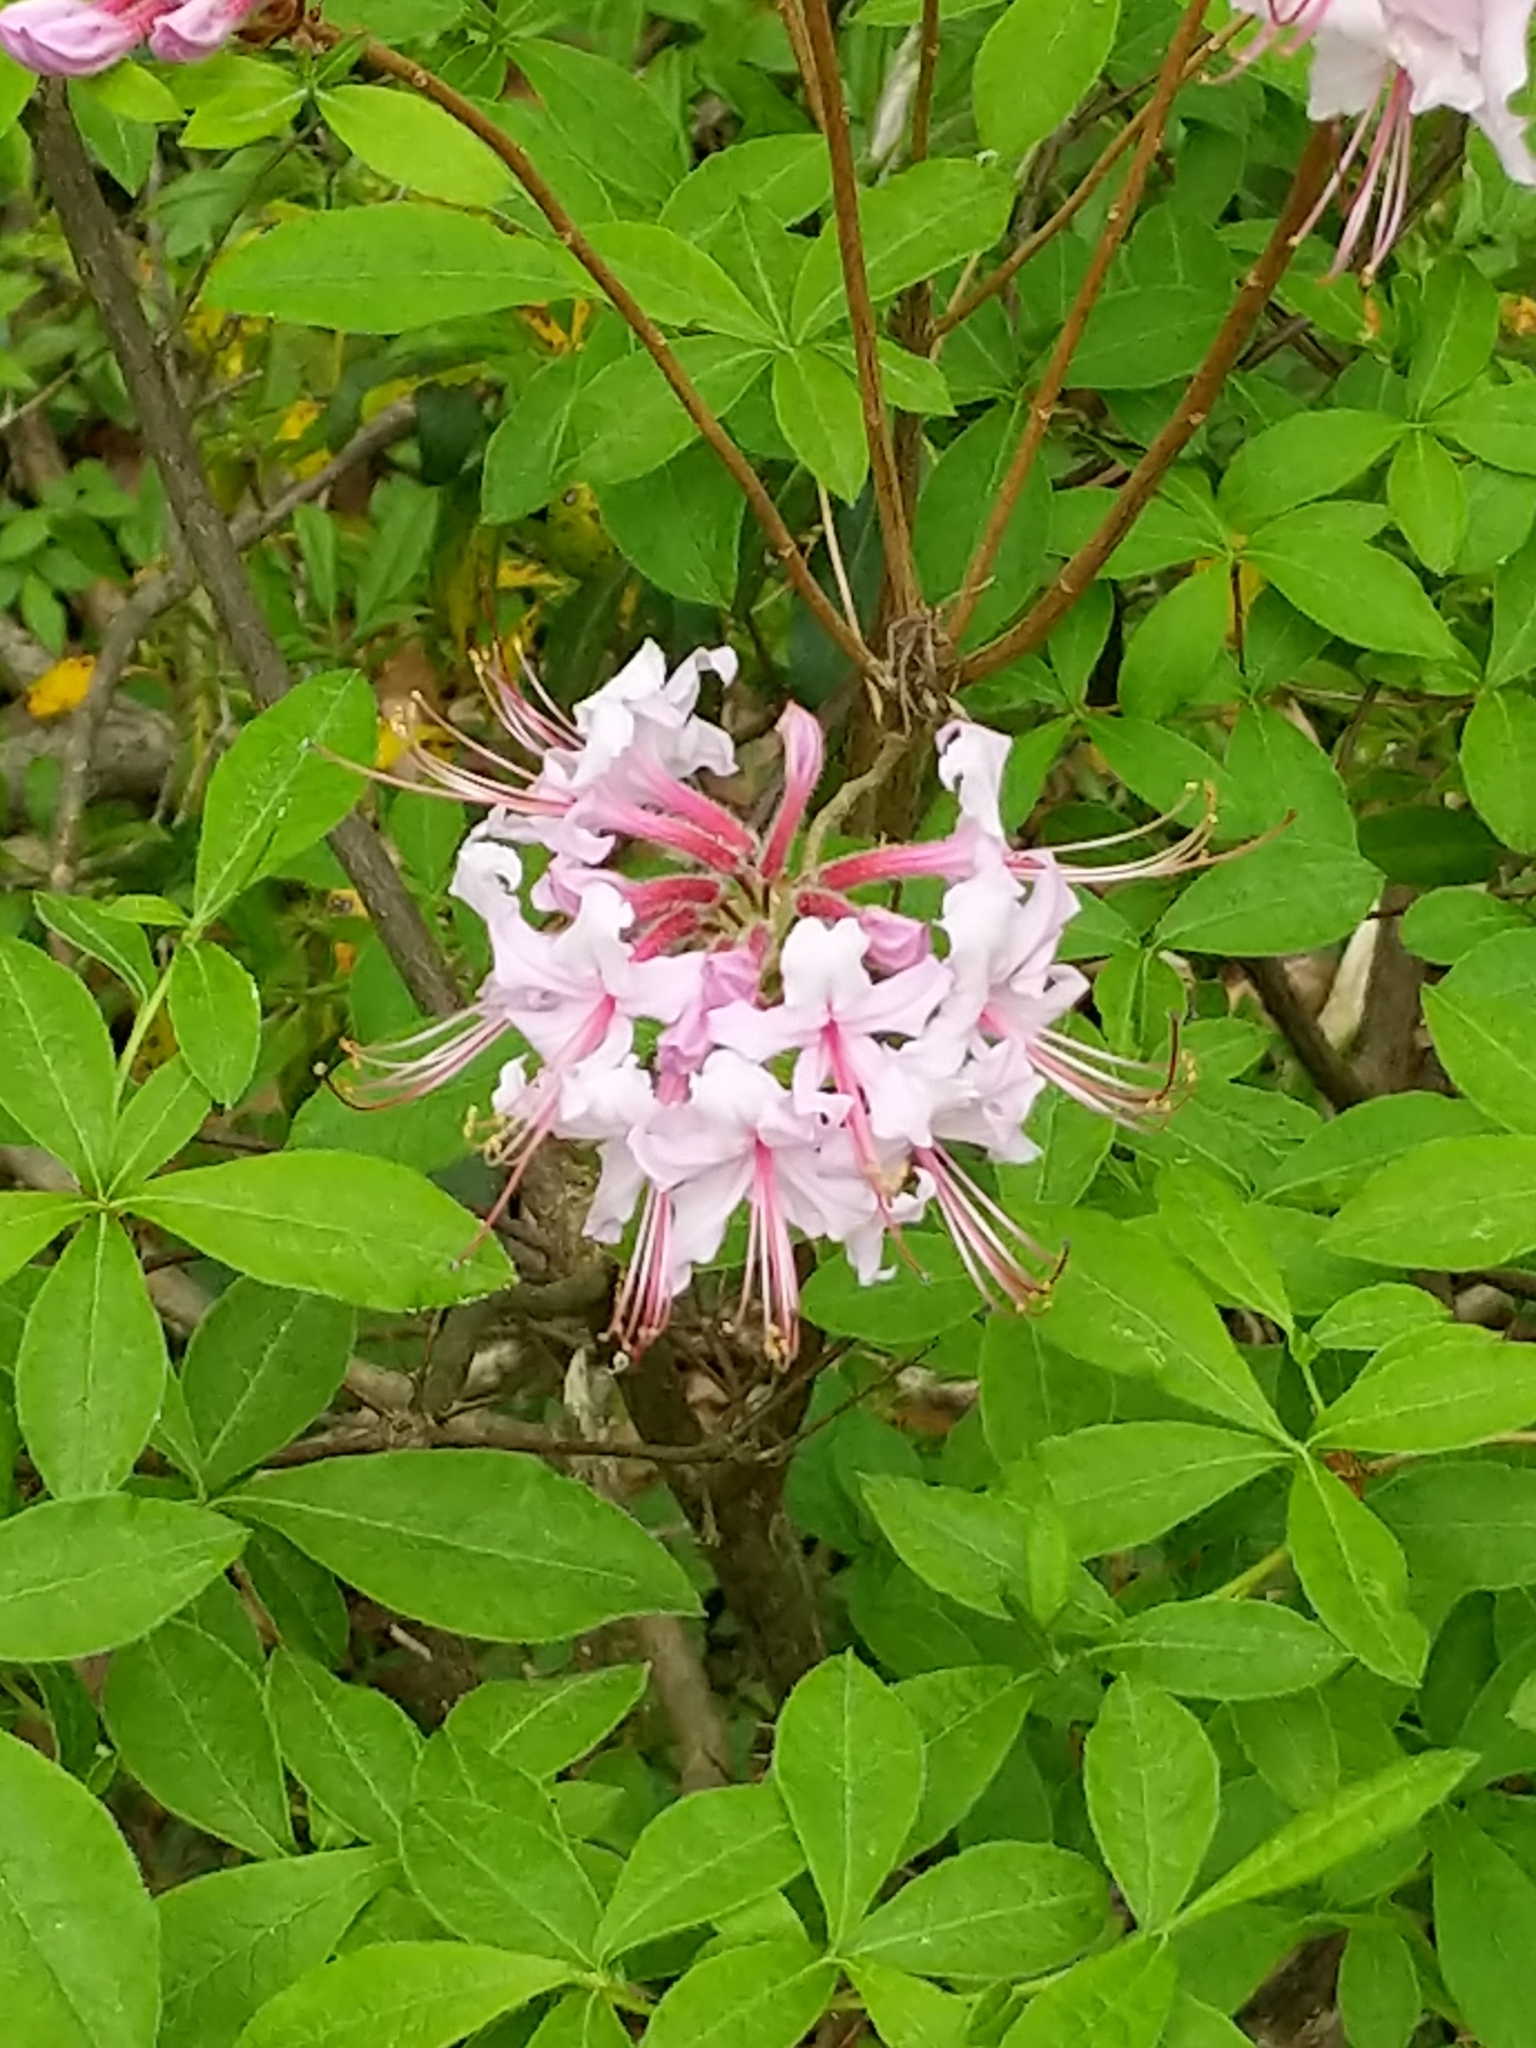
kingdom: Plantae
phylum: Tracheophyta
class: Magnoliopsida
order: Ericales
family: Ericaceae
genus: Rhododendron
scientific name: Rhododendron periclymenoides
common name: Election-pink
